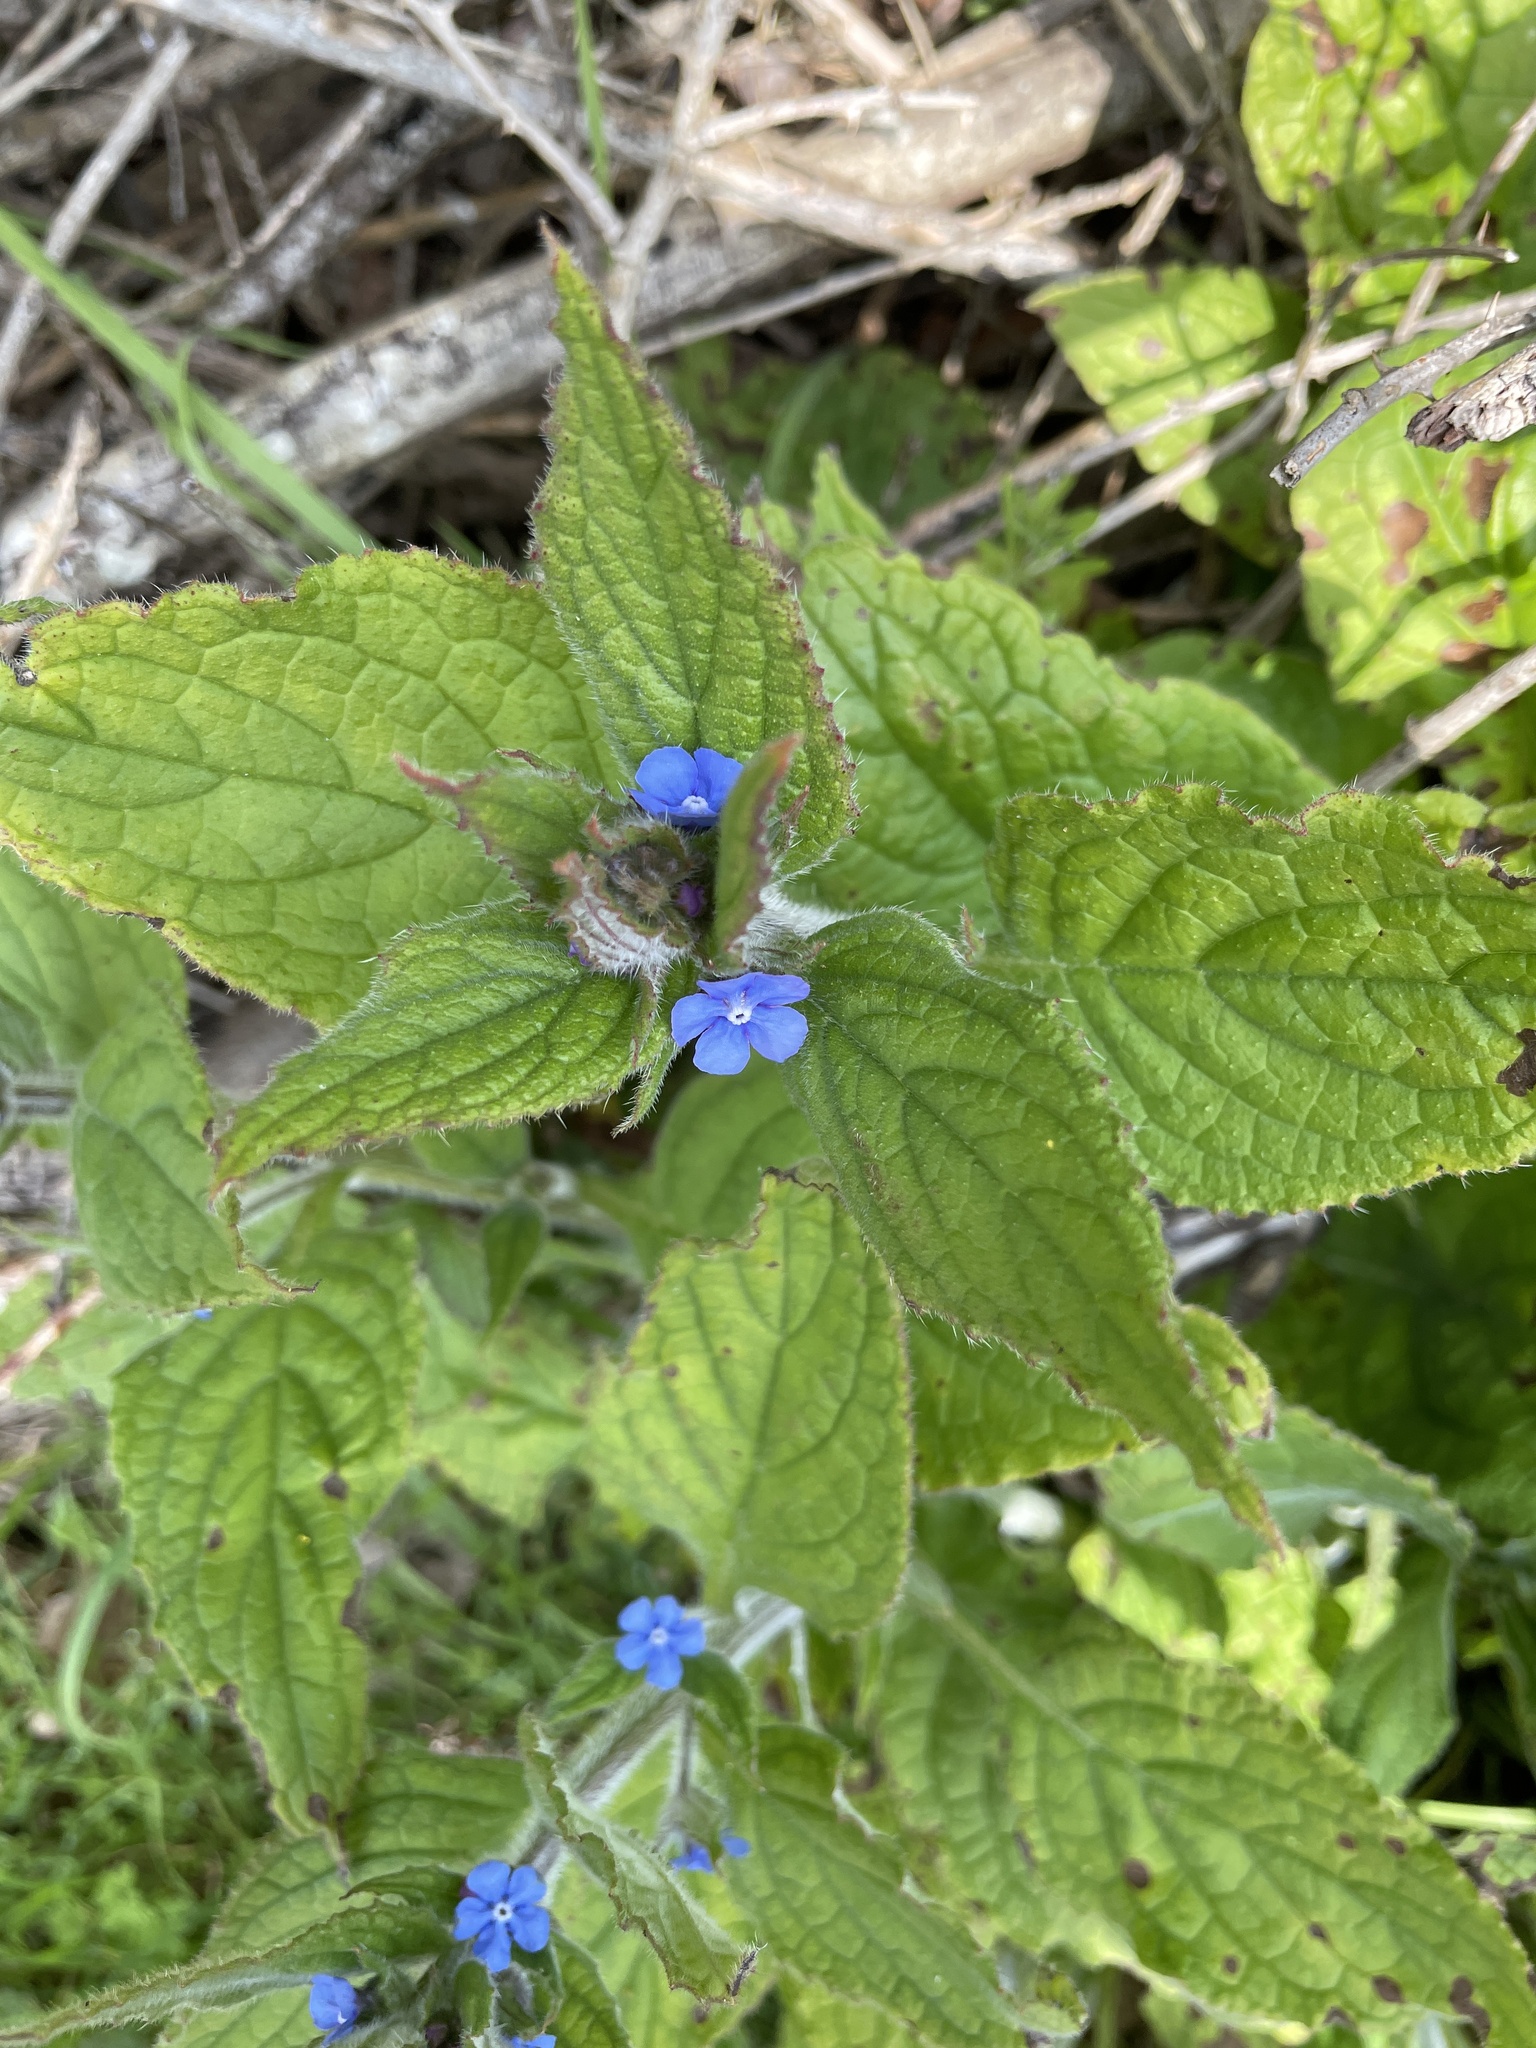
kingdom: Plantae
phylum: Tracheophyta
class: Magnoliopsida
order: Boraginales
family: Boraginaceae
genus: Pentaglottis
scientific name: Pentaglottis sempervirens
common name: Green alkanet
